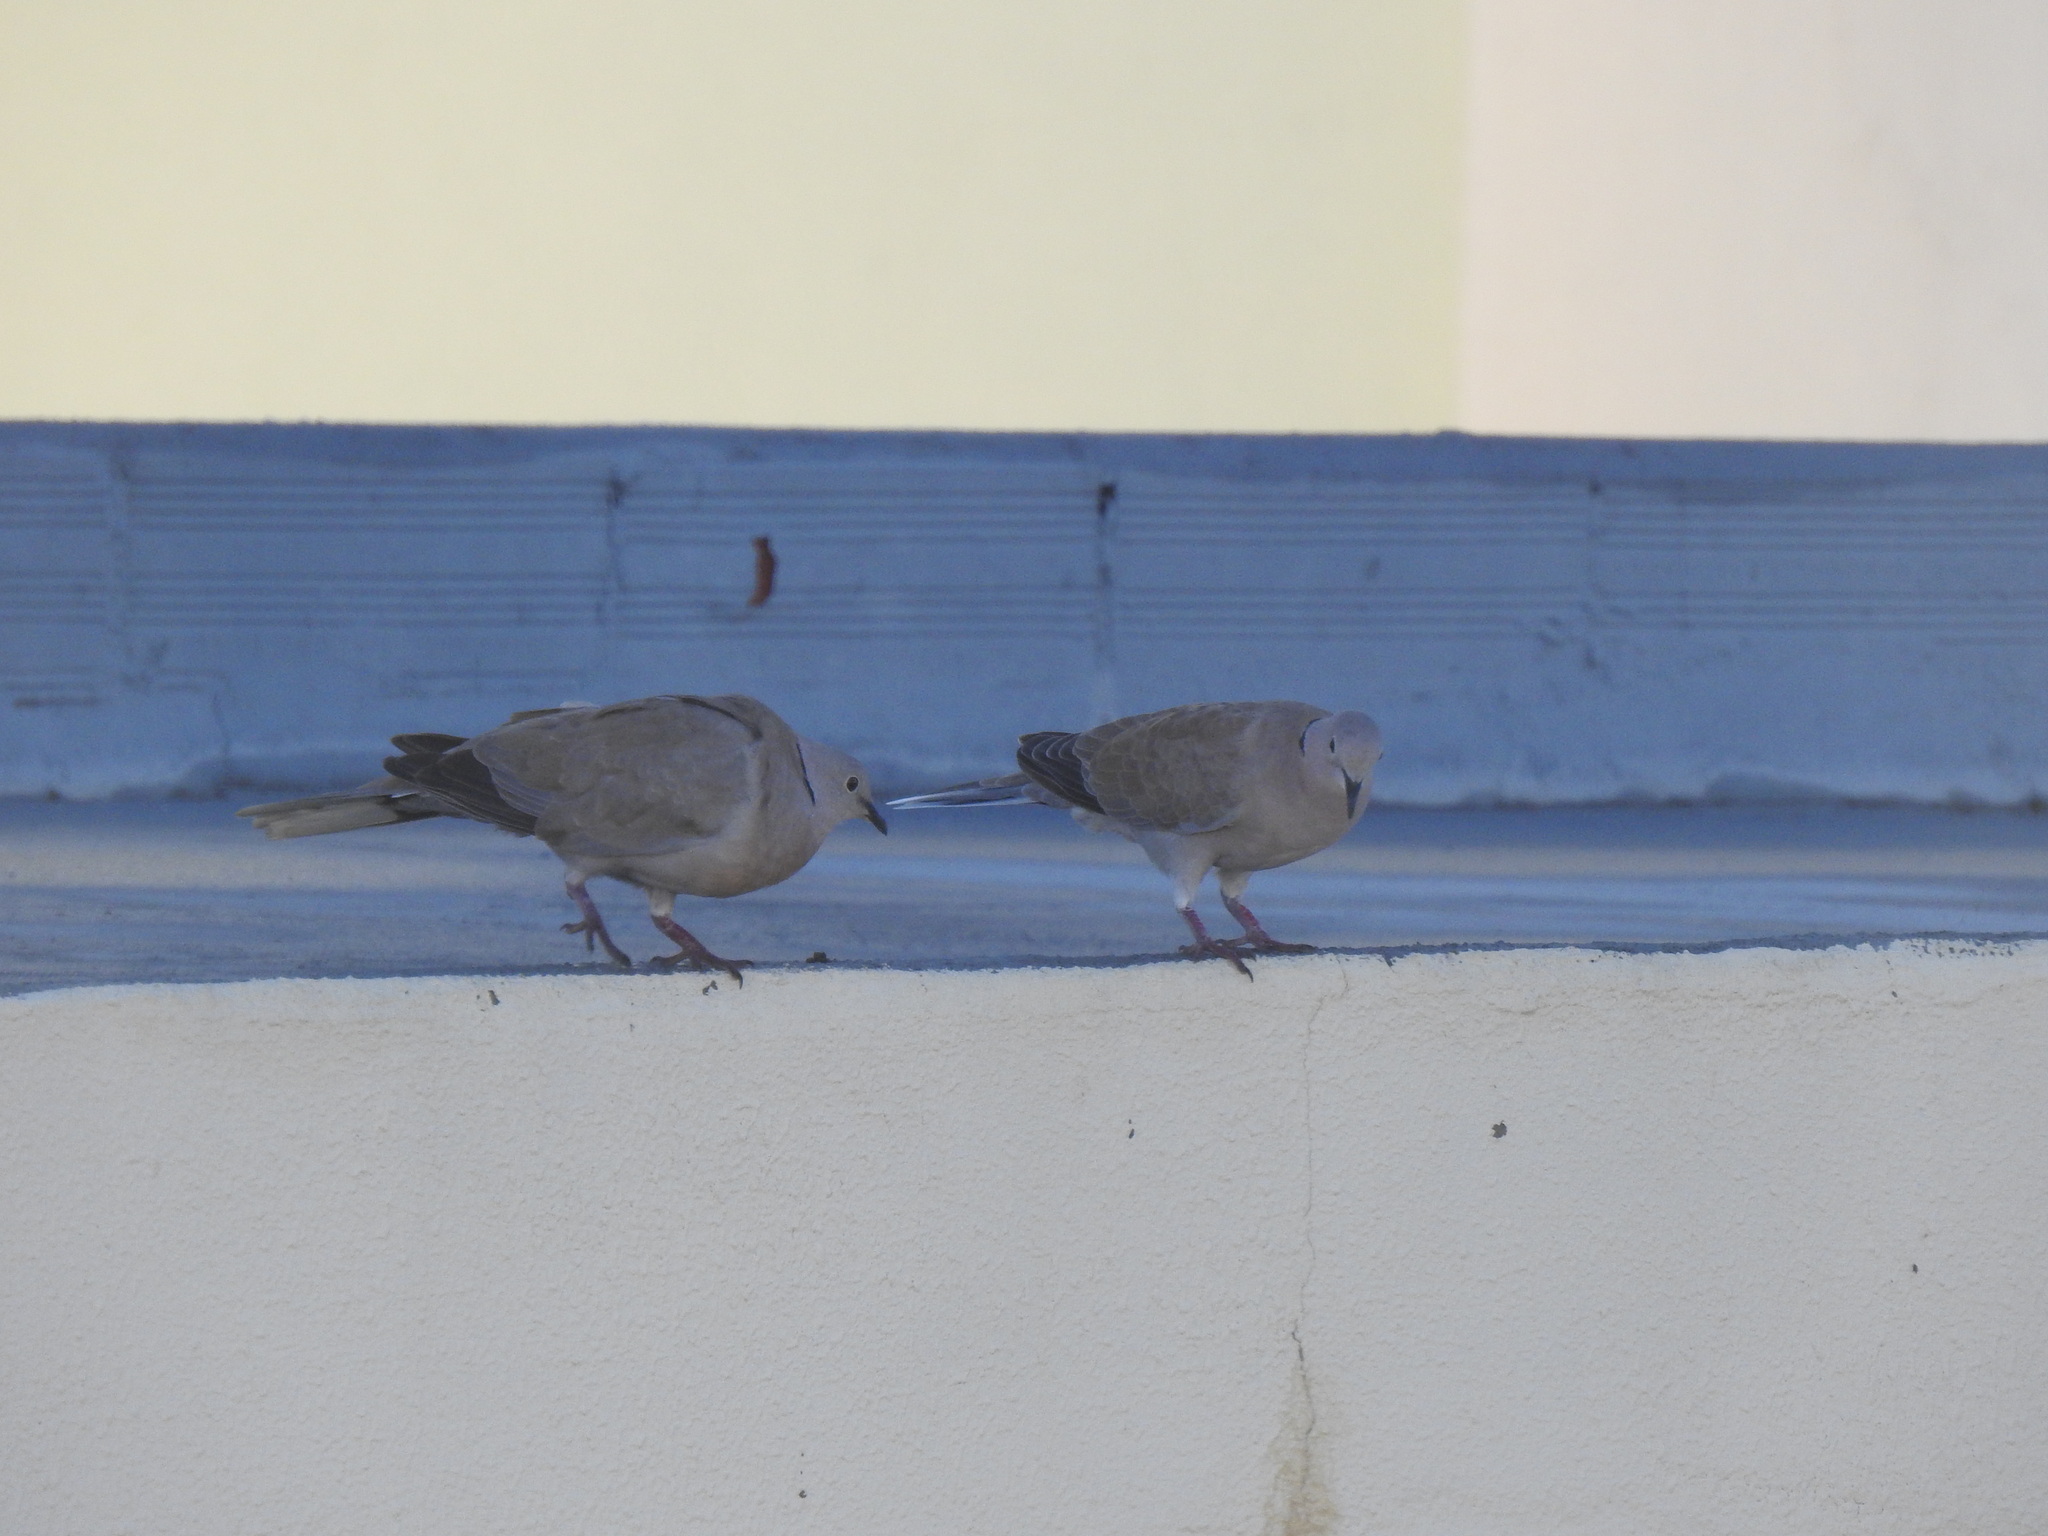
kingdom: Animalia
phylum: Chordata
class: Aves
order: Columbiformes
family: Columbidae
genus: Streptopelia
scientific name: Streptopelia decaocto
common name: Eurasian collared dove
